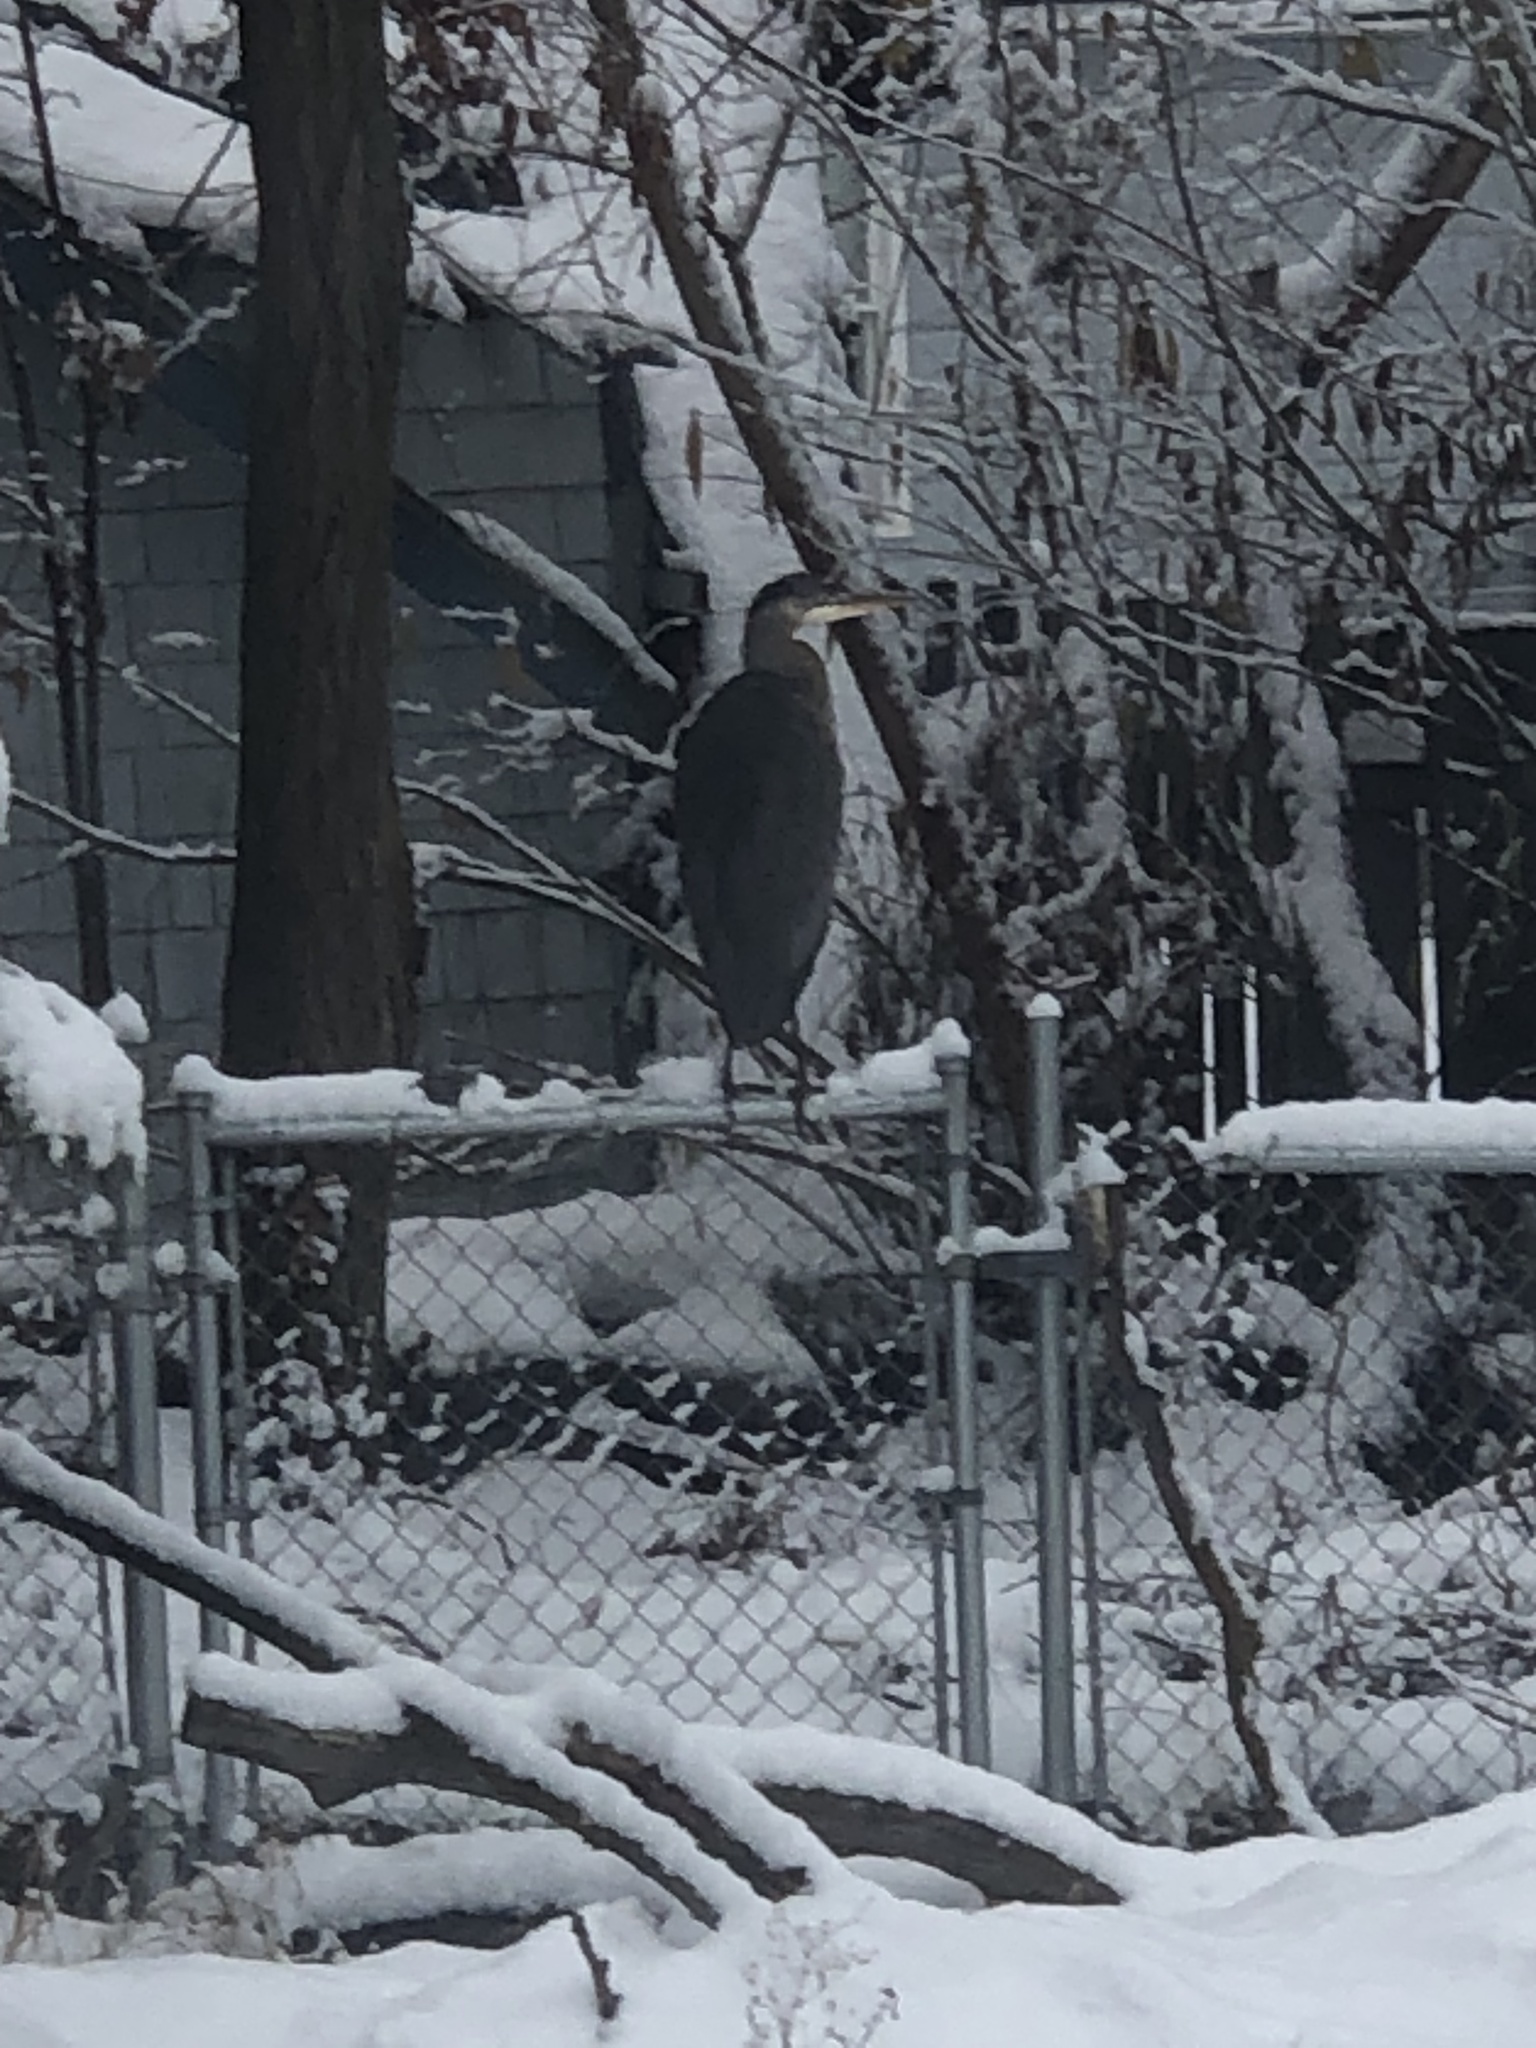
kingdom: Animalia
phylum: Chordata
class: Aves
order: Pelecaniformes
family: Ardeidae
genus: Ardea
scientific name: Ardea herodias
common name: Great blue heron
